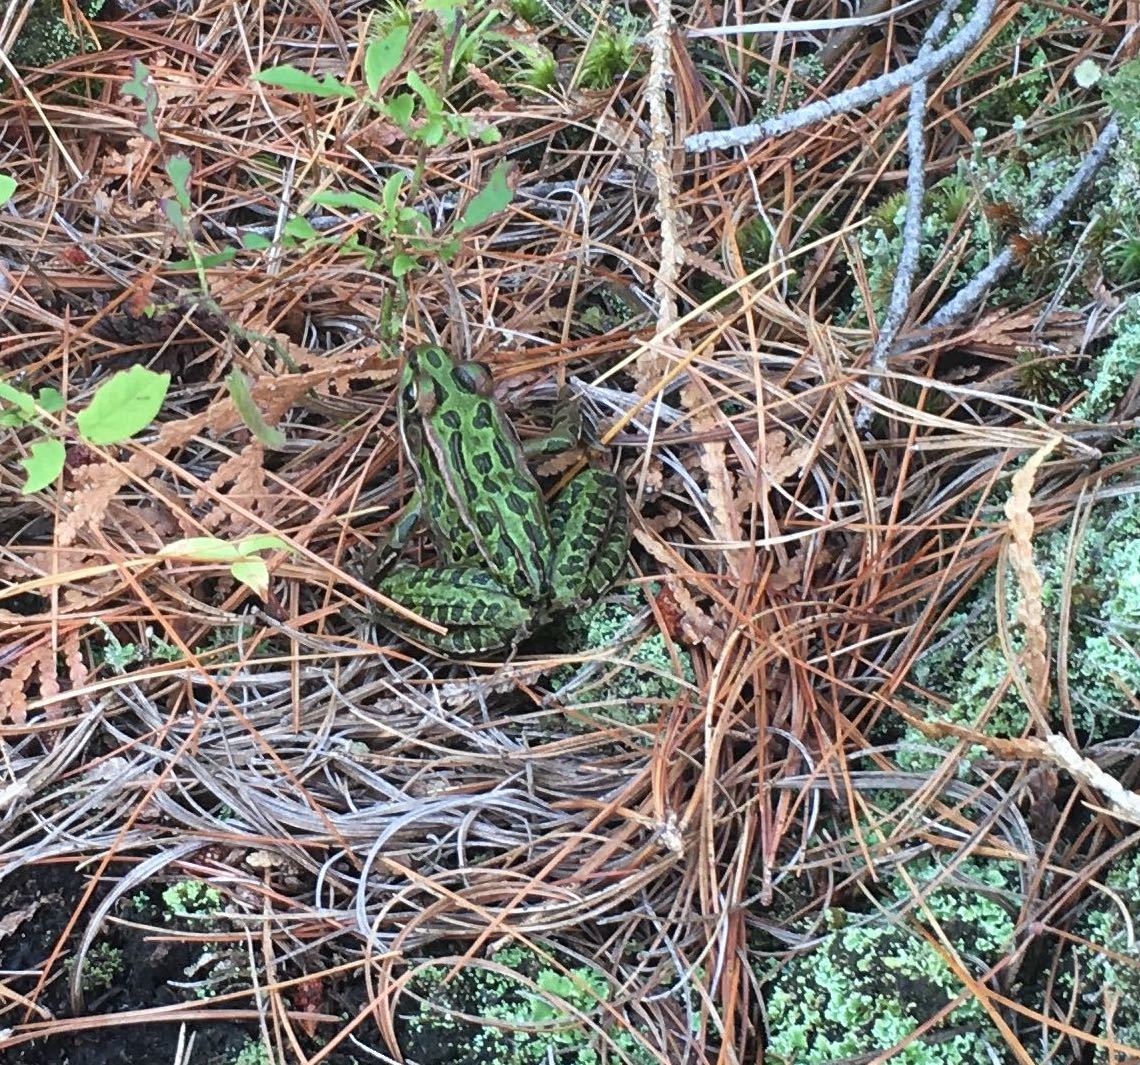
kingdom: Animalia
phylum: Chordata
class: Amphibia
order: Anura
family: Ranidae
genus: Lithobates
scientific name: Lithobates pipiens
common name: Northern leopard frog
